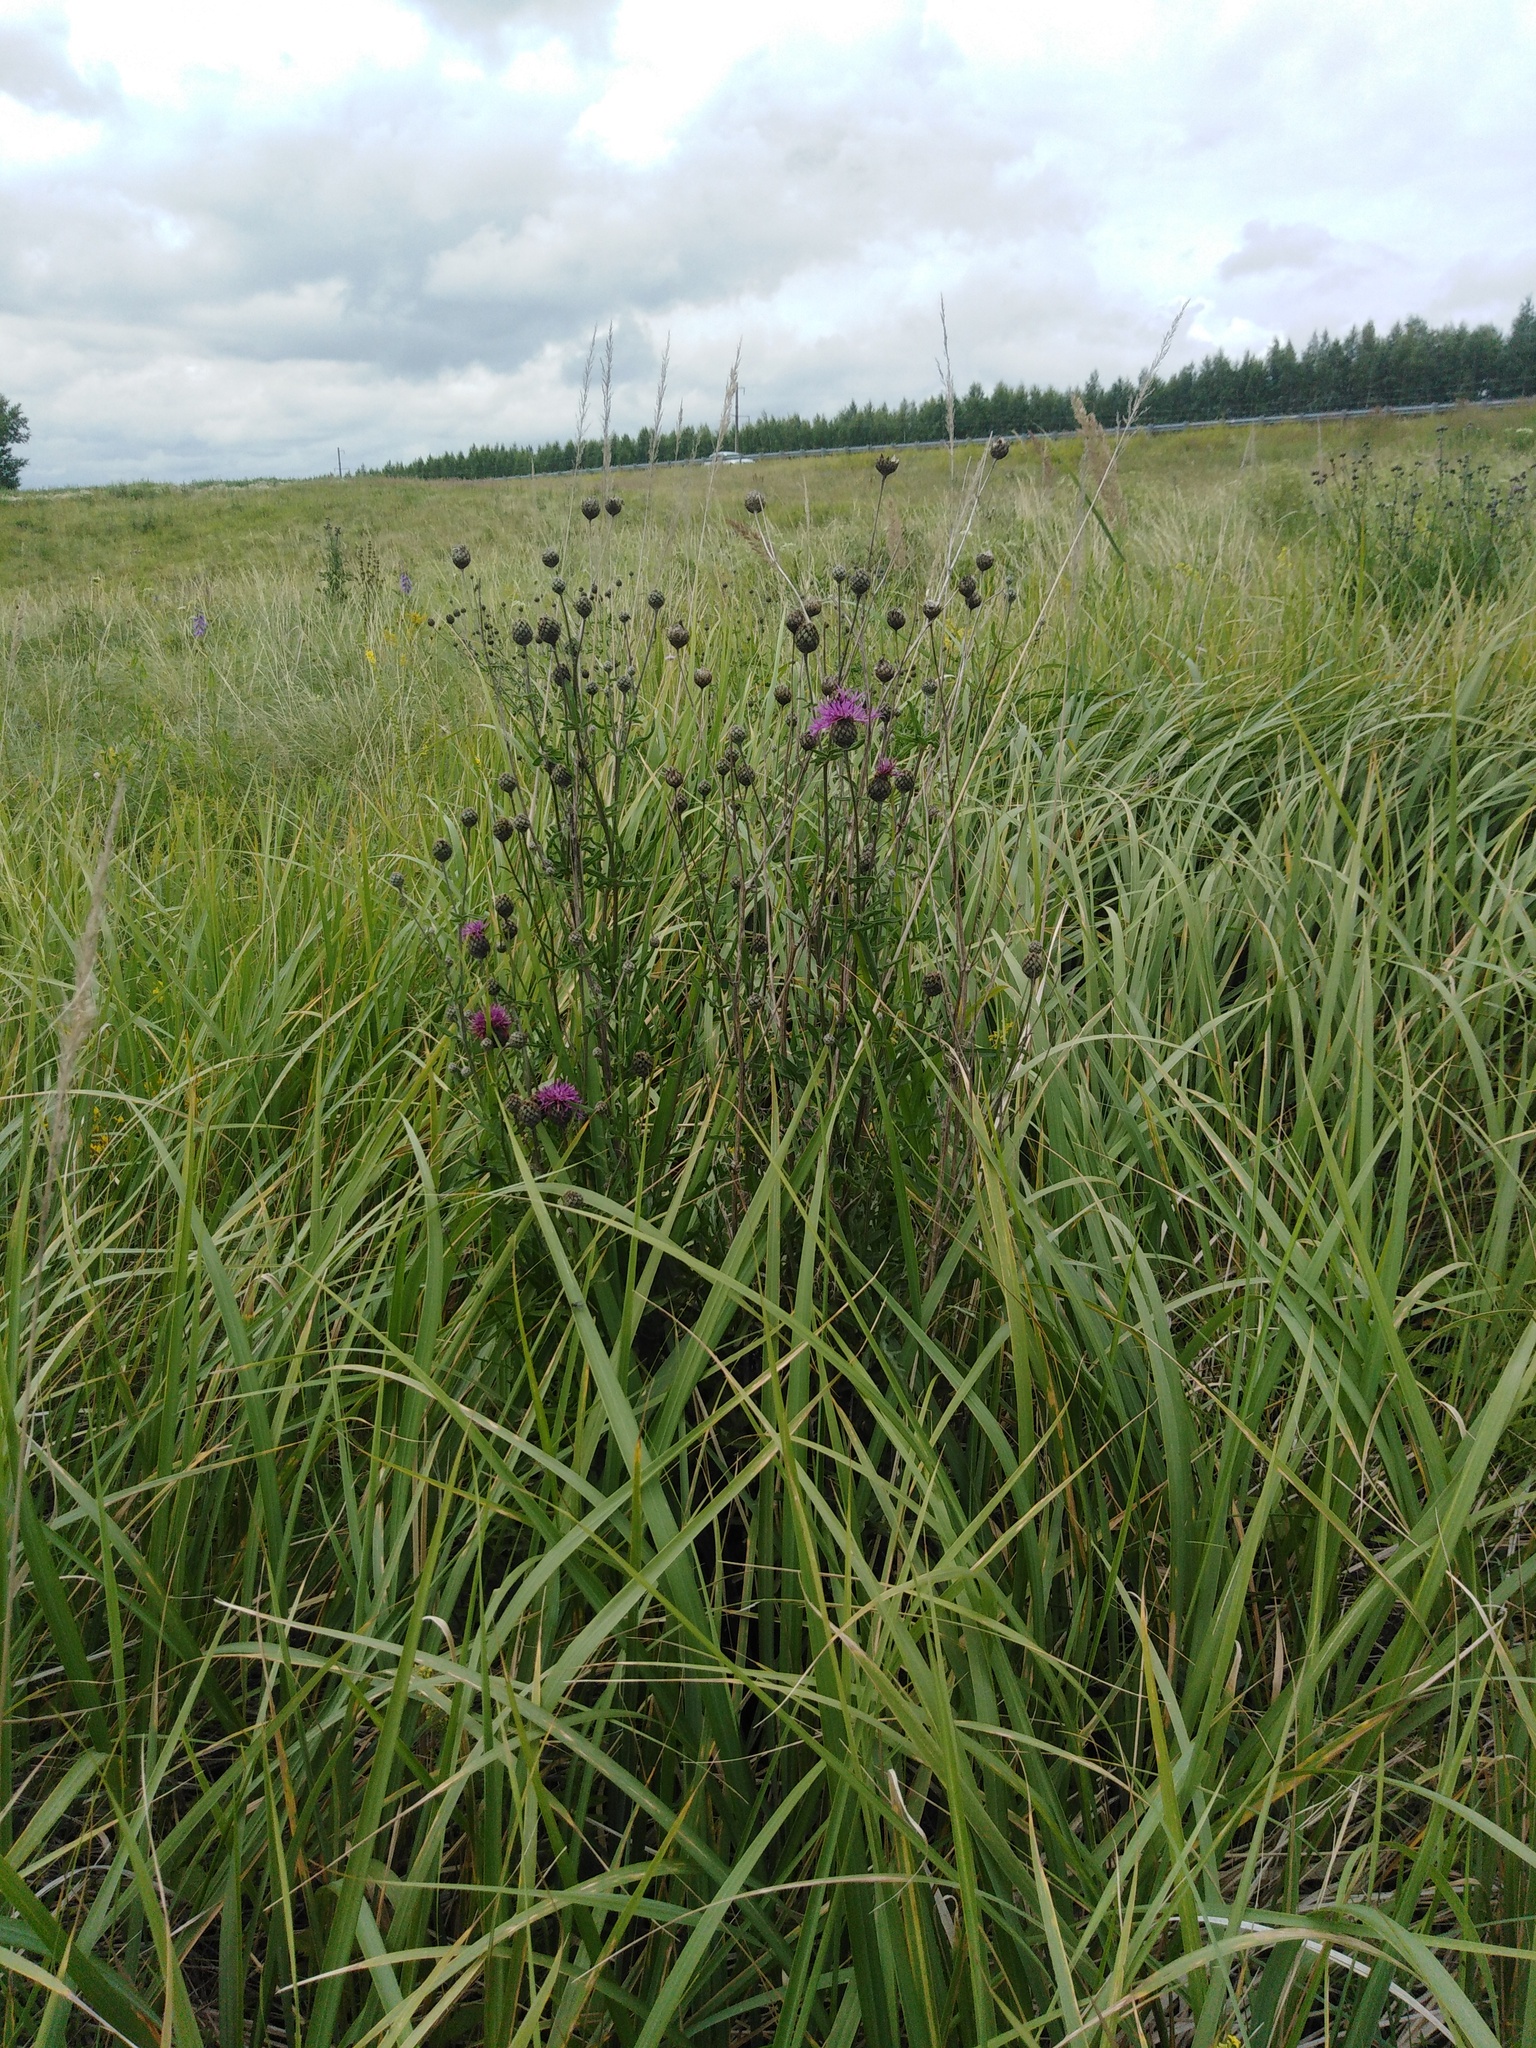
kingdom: Plantae
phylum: Tracheophyta
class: Magnoliopsida
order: Asterales
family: Asteraceae
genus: Centaurea
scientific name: Centaurea scabiosa
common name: Greater knapweed
